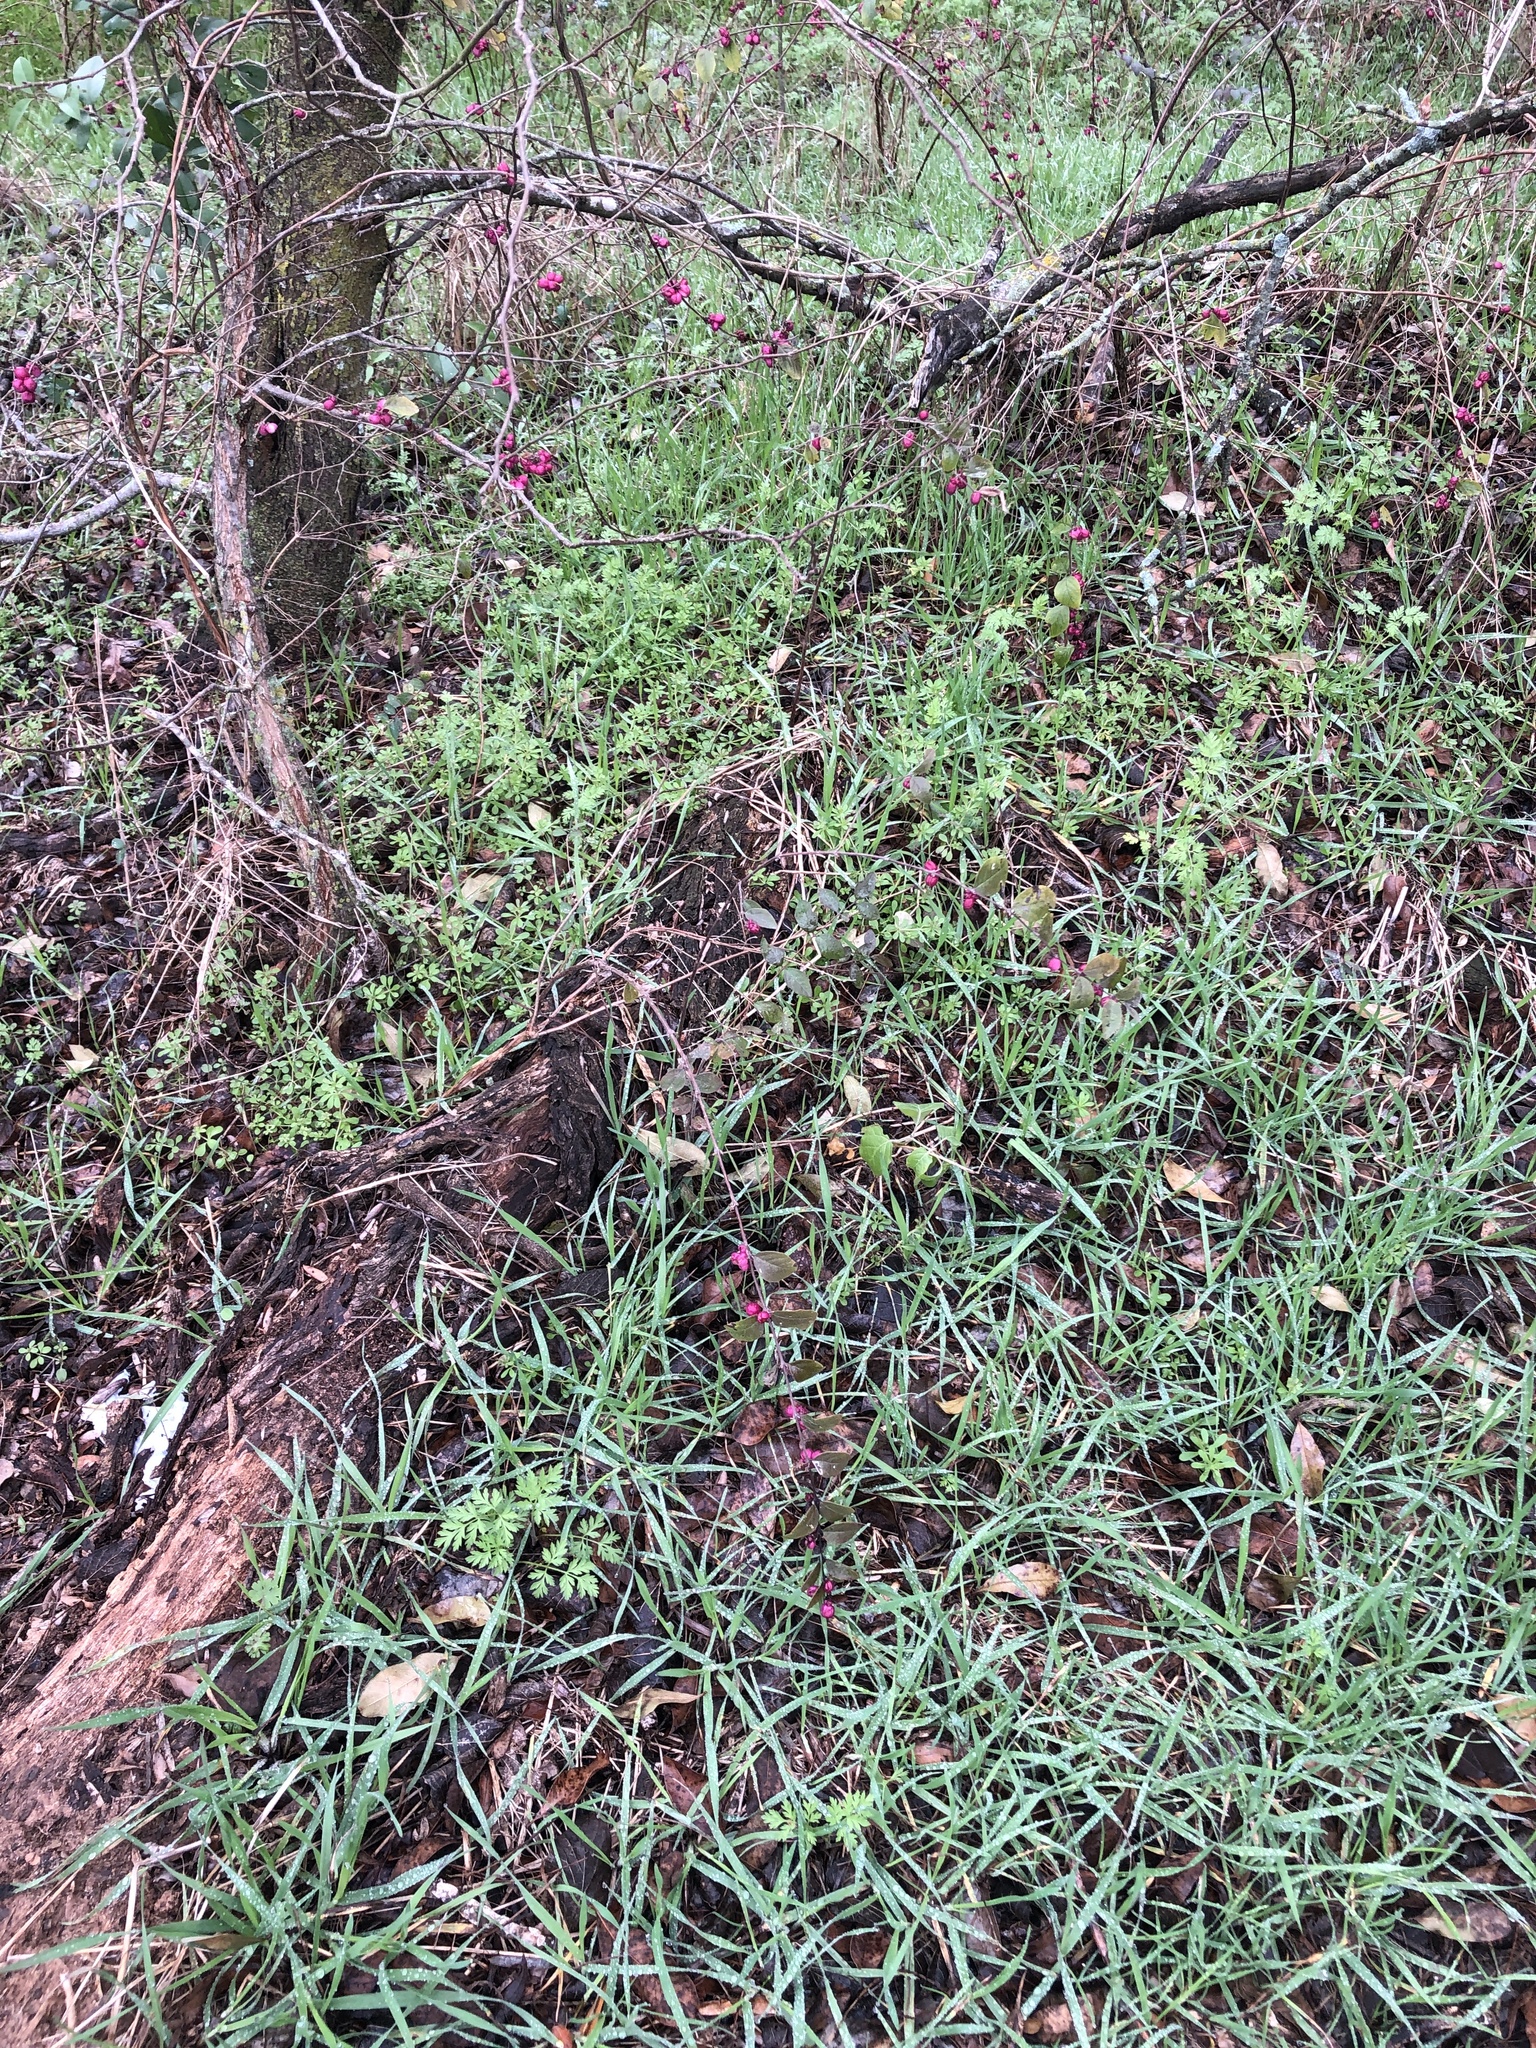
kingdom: Plantae
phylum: Tracheophyta
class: Magnoliopsida
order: Dipsacales
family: Caprifoliaceae
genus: Symphoricarpos
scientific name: Symphoricarpos orbiculatus
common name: Coralberry
